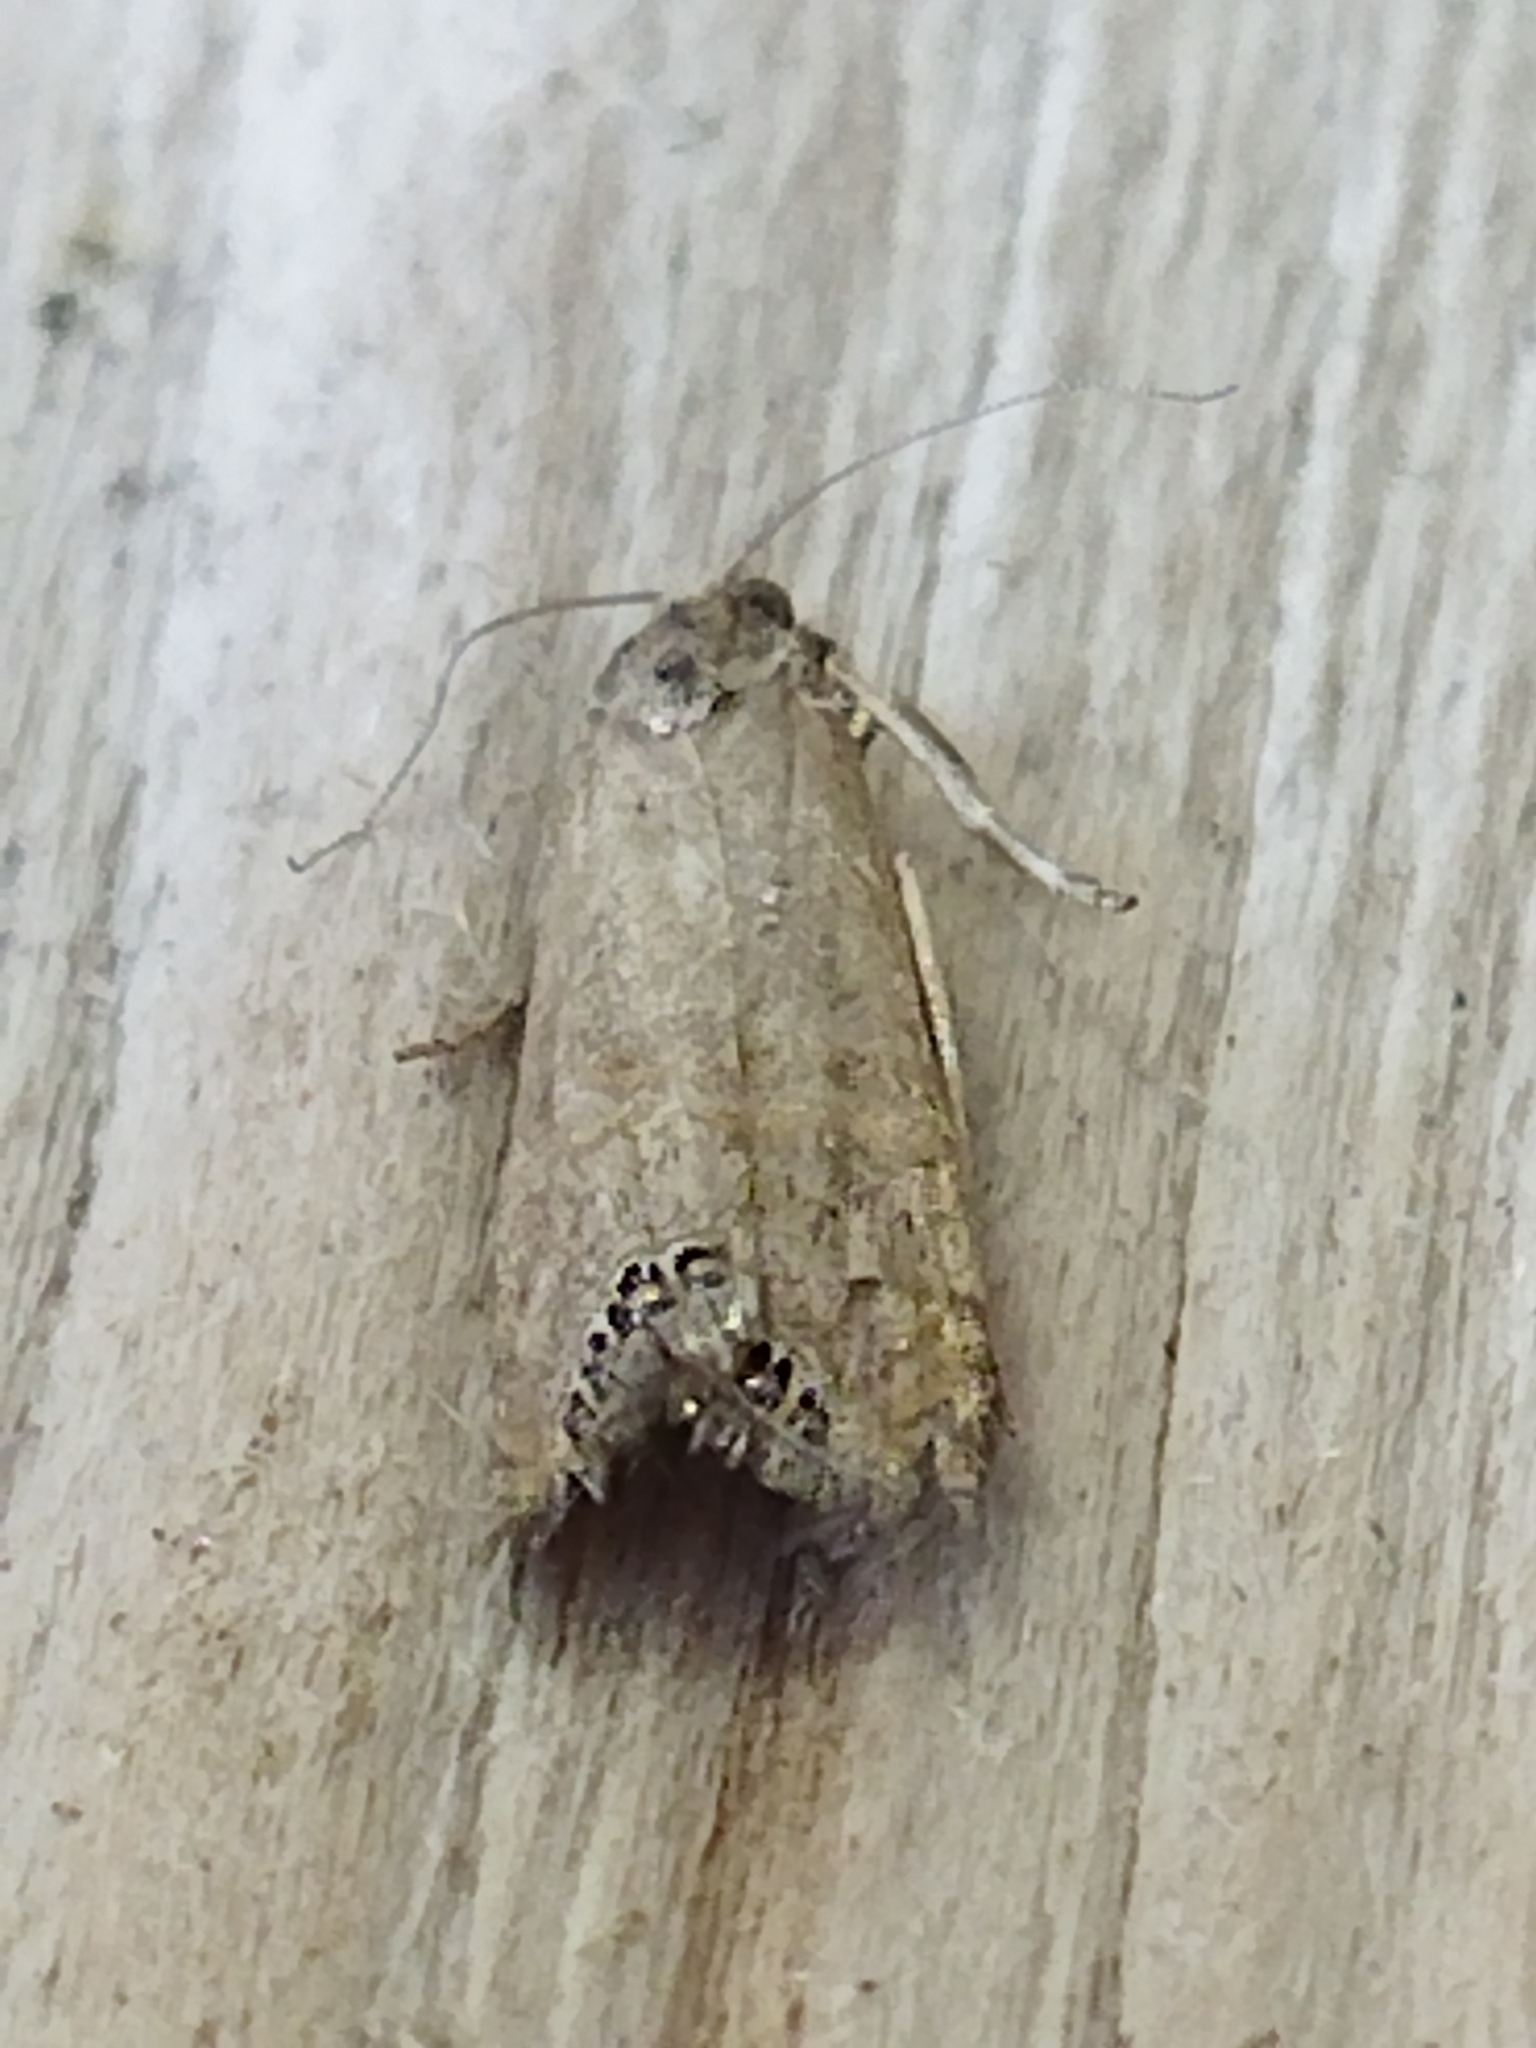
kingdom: Animalia
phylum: Arthropoda
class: Insecta
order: Lepidoptera
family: Crambidae
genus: Euchromius
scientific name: Euchromius ocellea
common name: Necklace veneer moth
